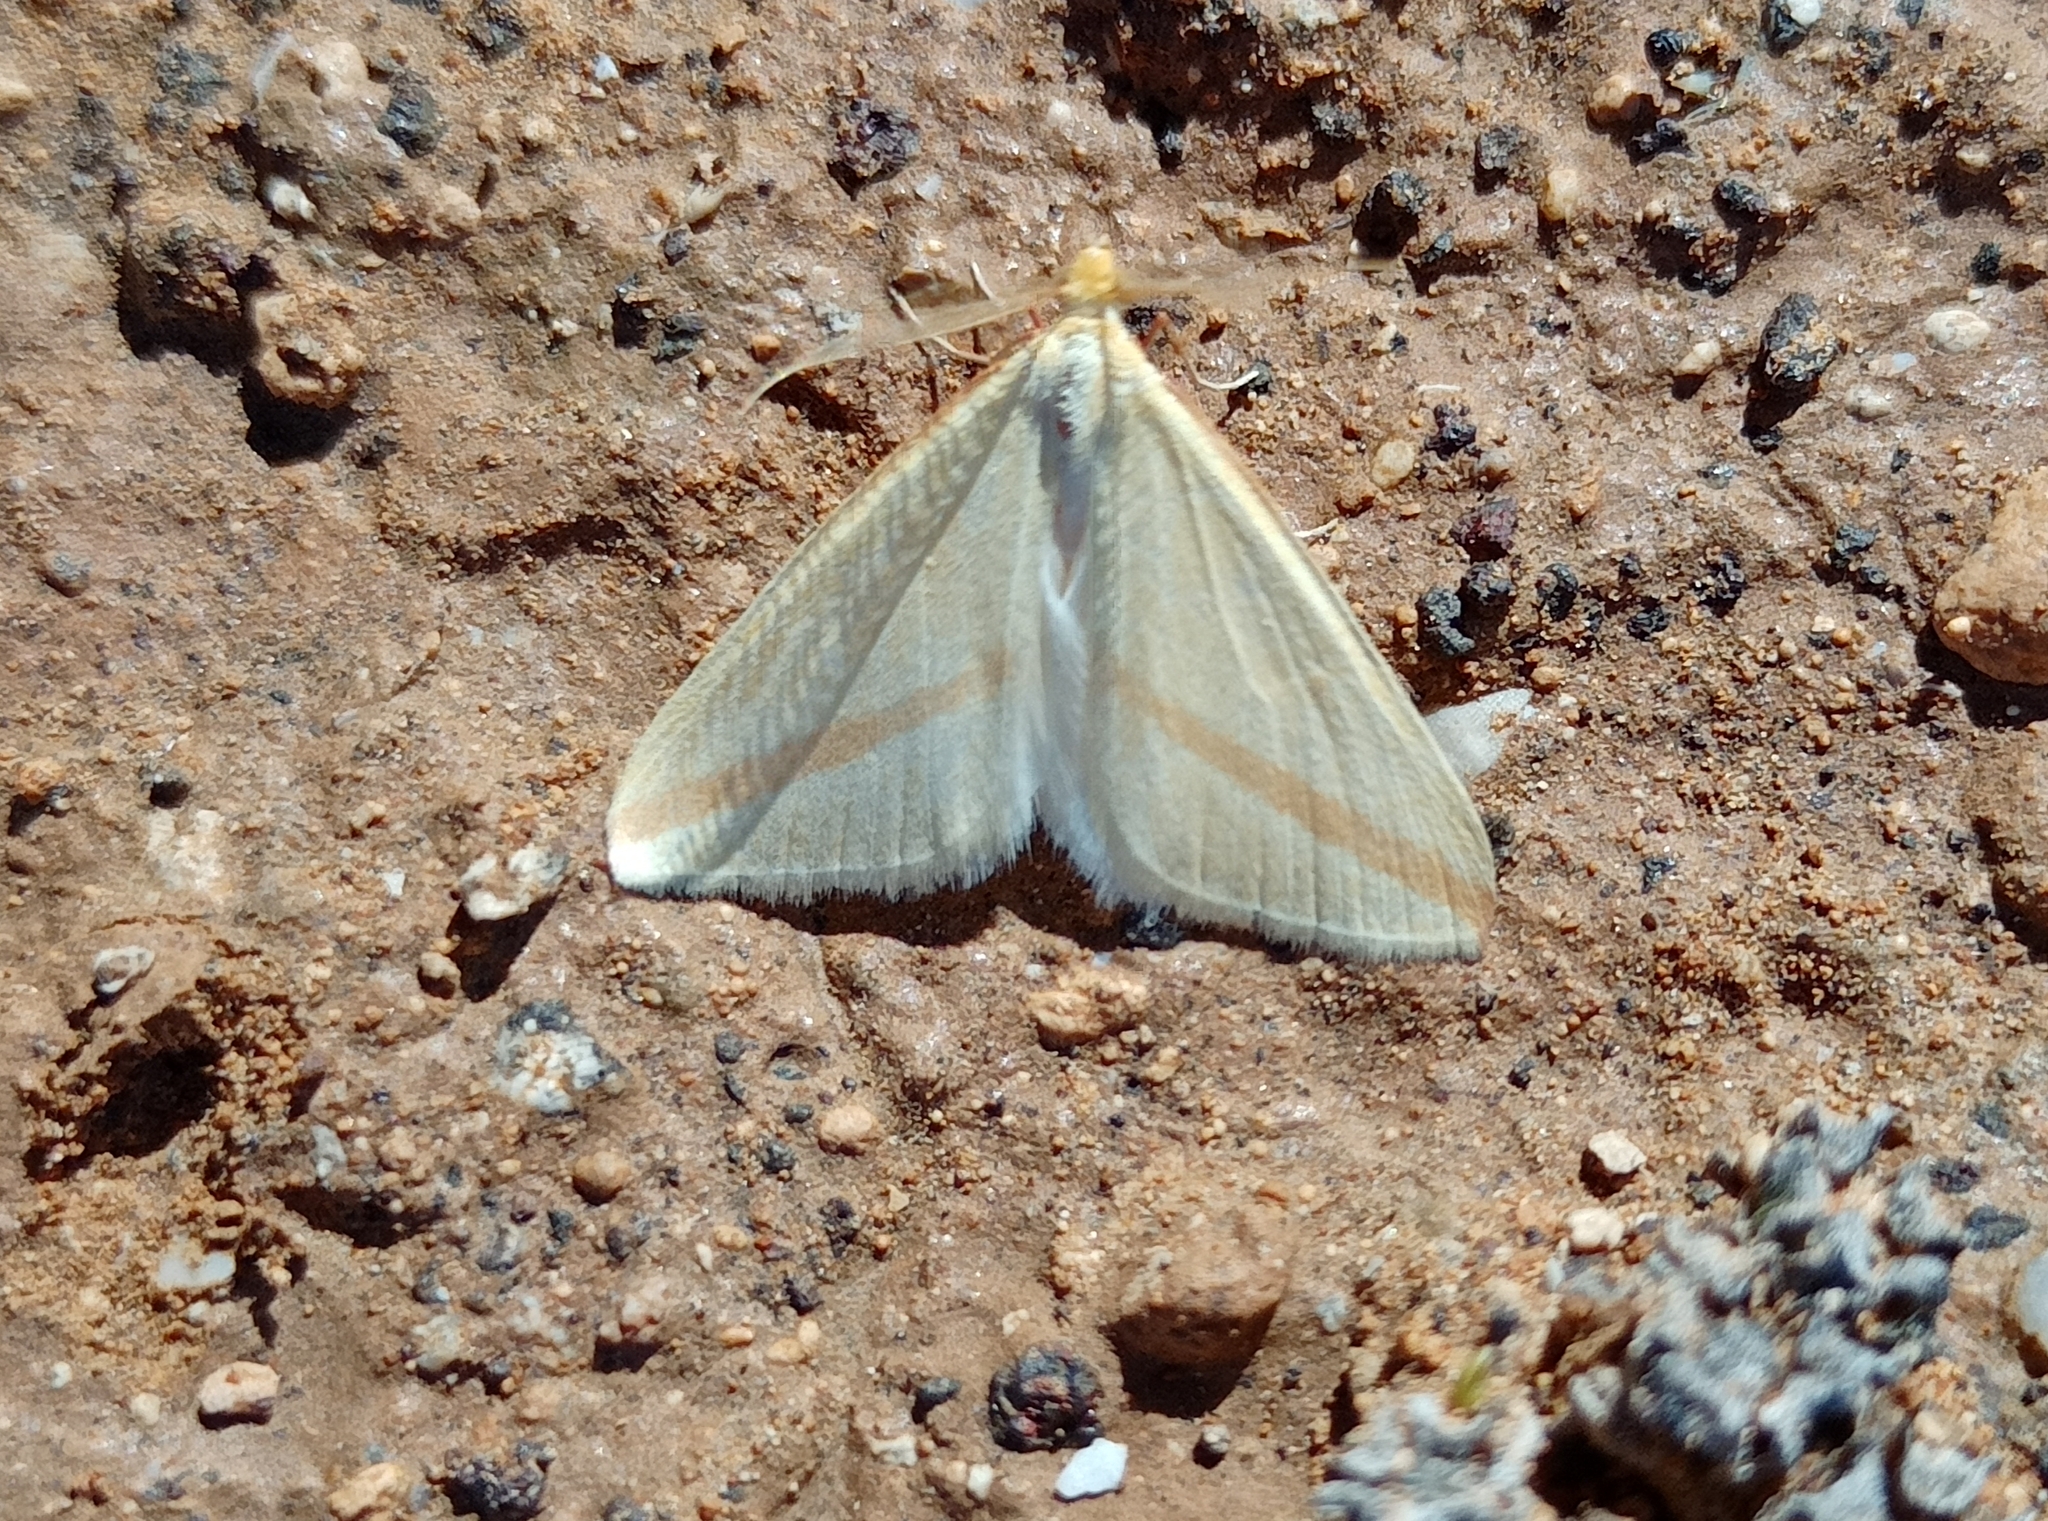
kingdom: Animalia
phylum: Arthropoda
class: Insecta
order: Lepidoptera
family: Geometridae
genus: Rhodometra
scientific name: Rhodometra sacraria
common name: Vestal
